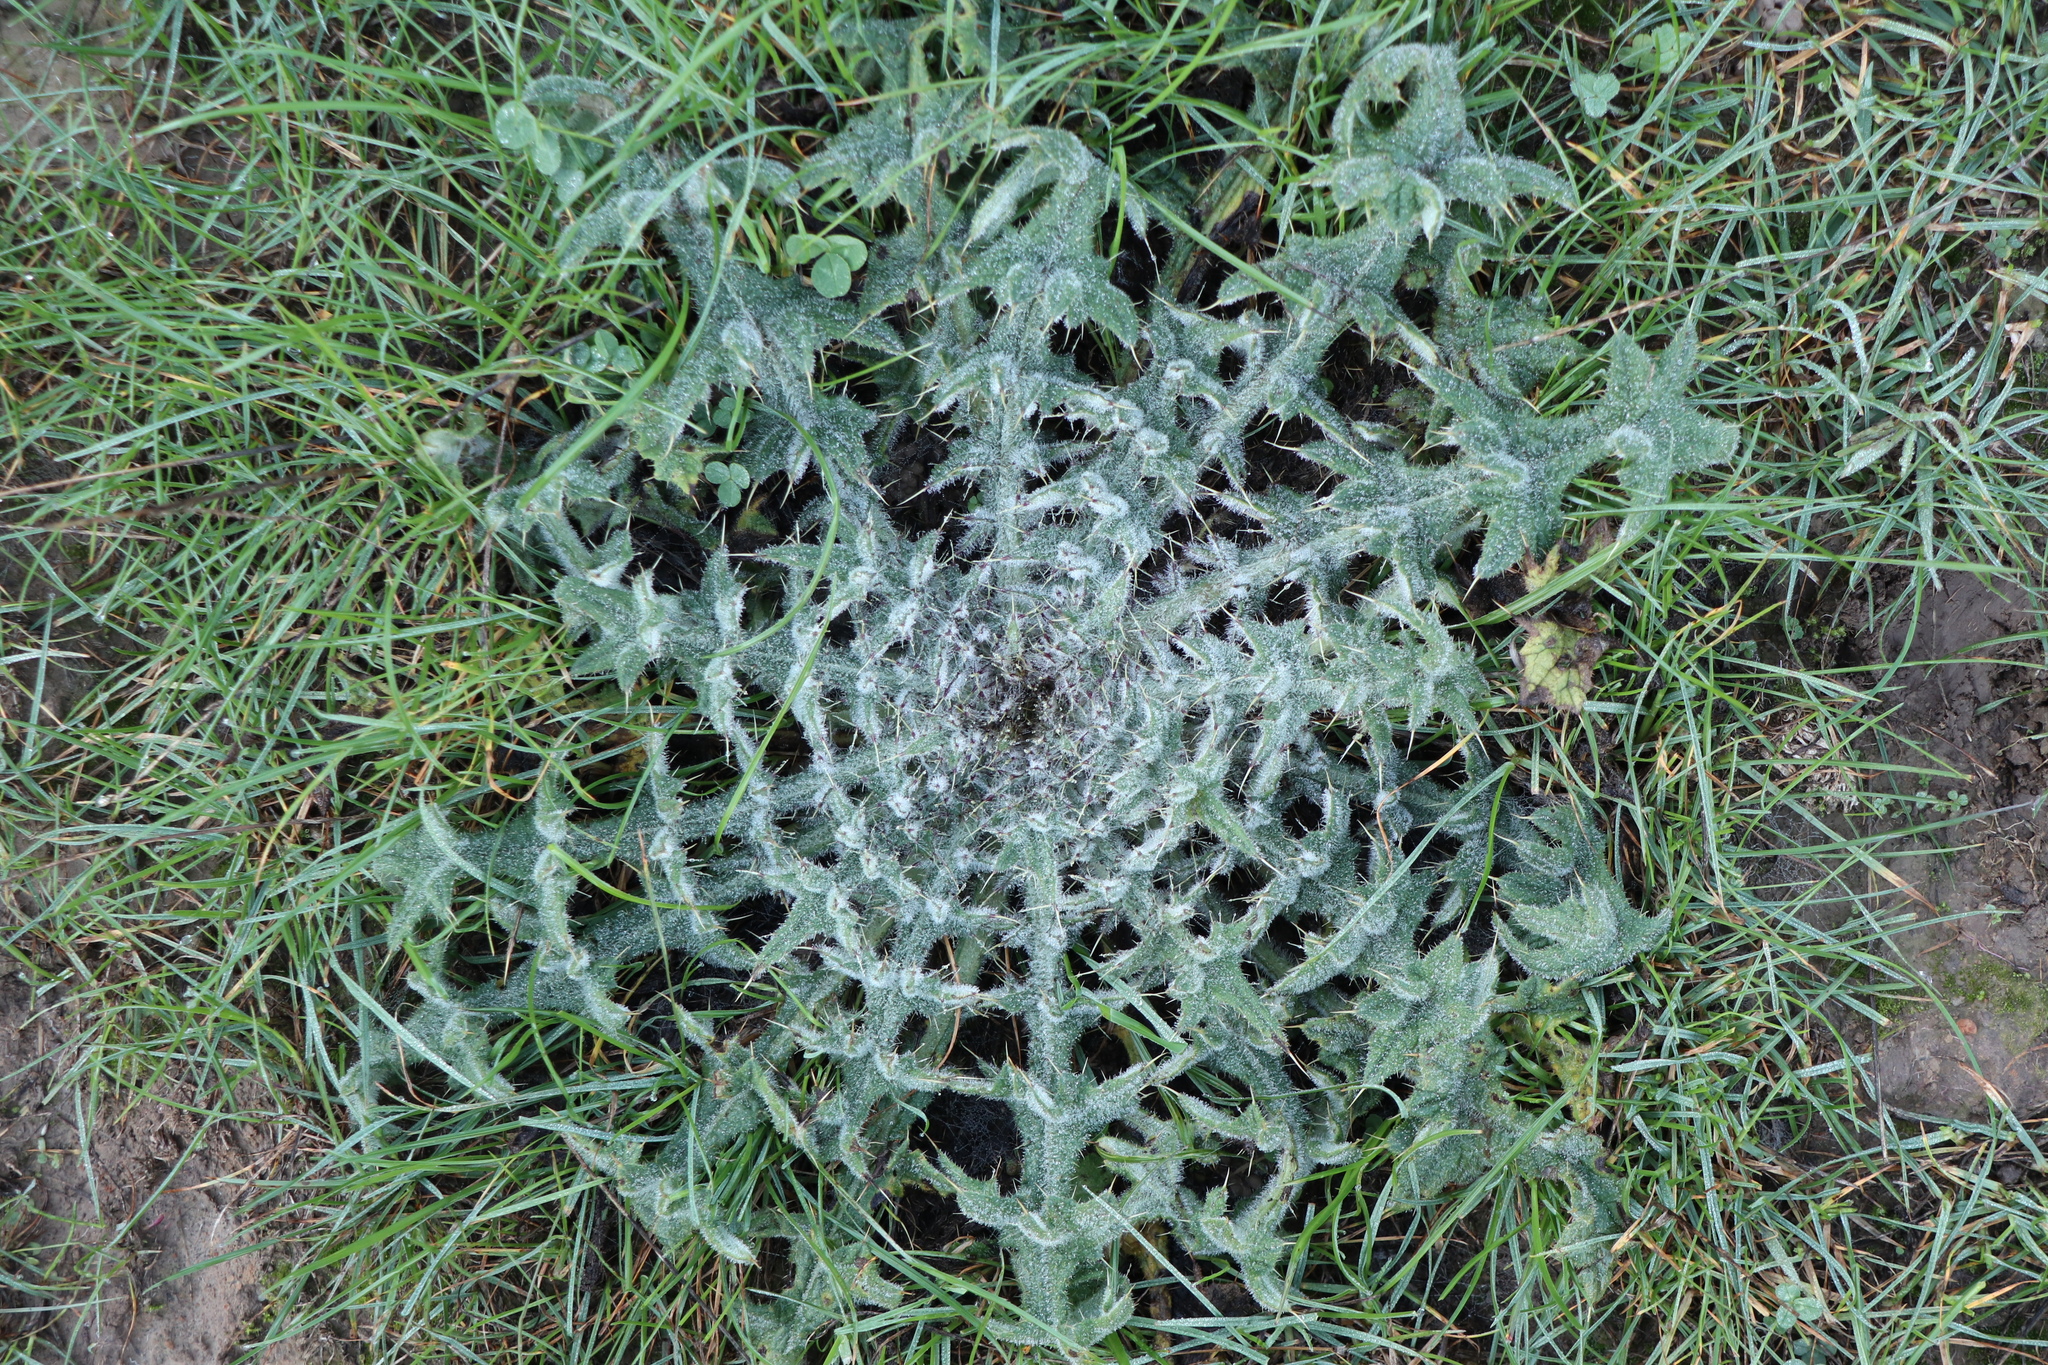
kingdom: Plantae
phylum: Tracheophyta
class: Magnoliopsida
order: Asterales
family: Asteraceae
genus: Cirsium
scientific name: Cirsium vulgare
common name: Bull thistle
